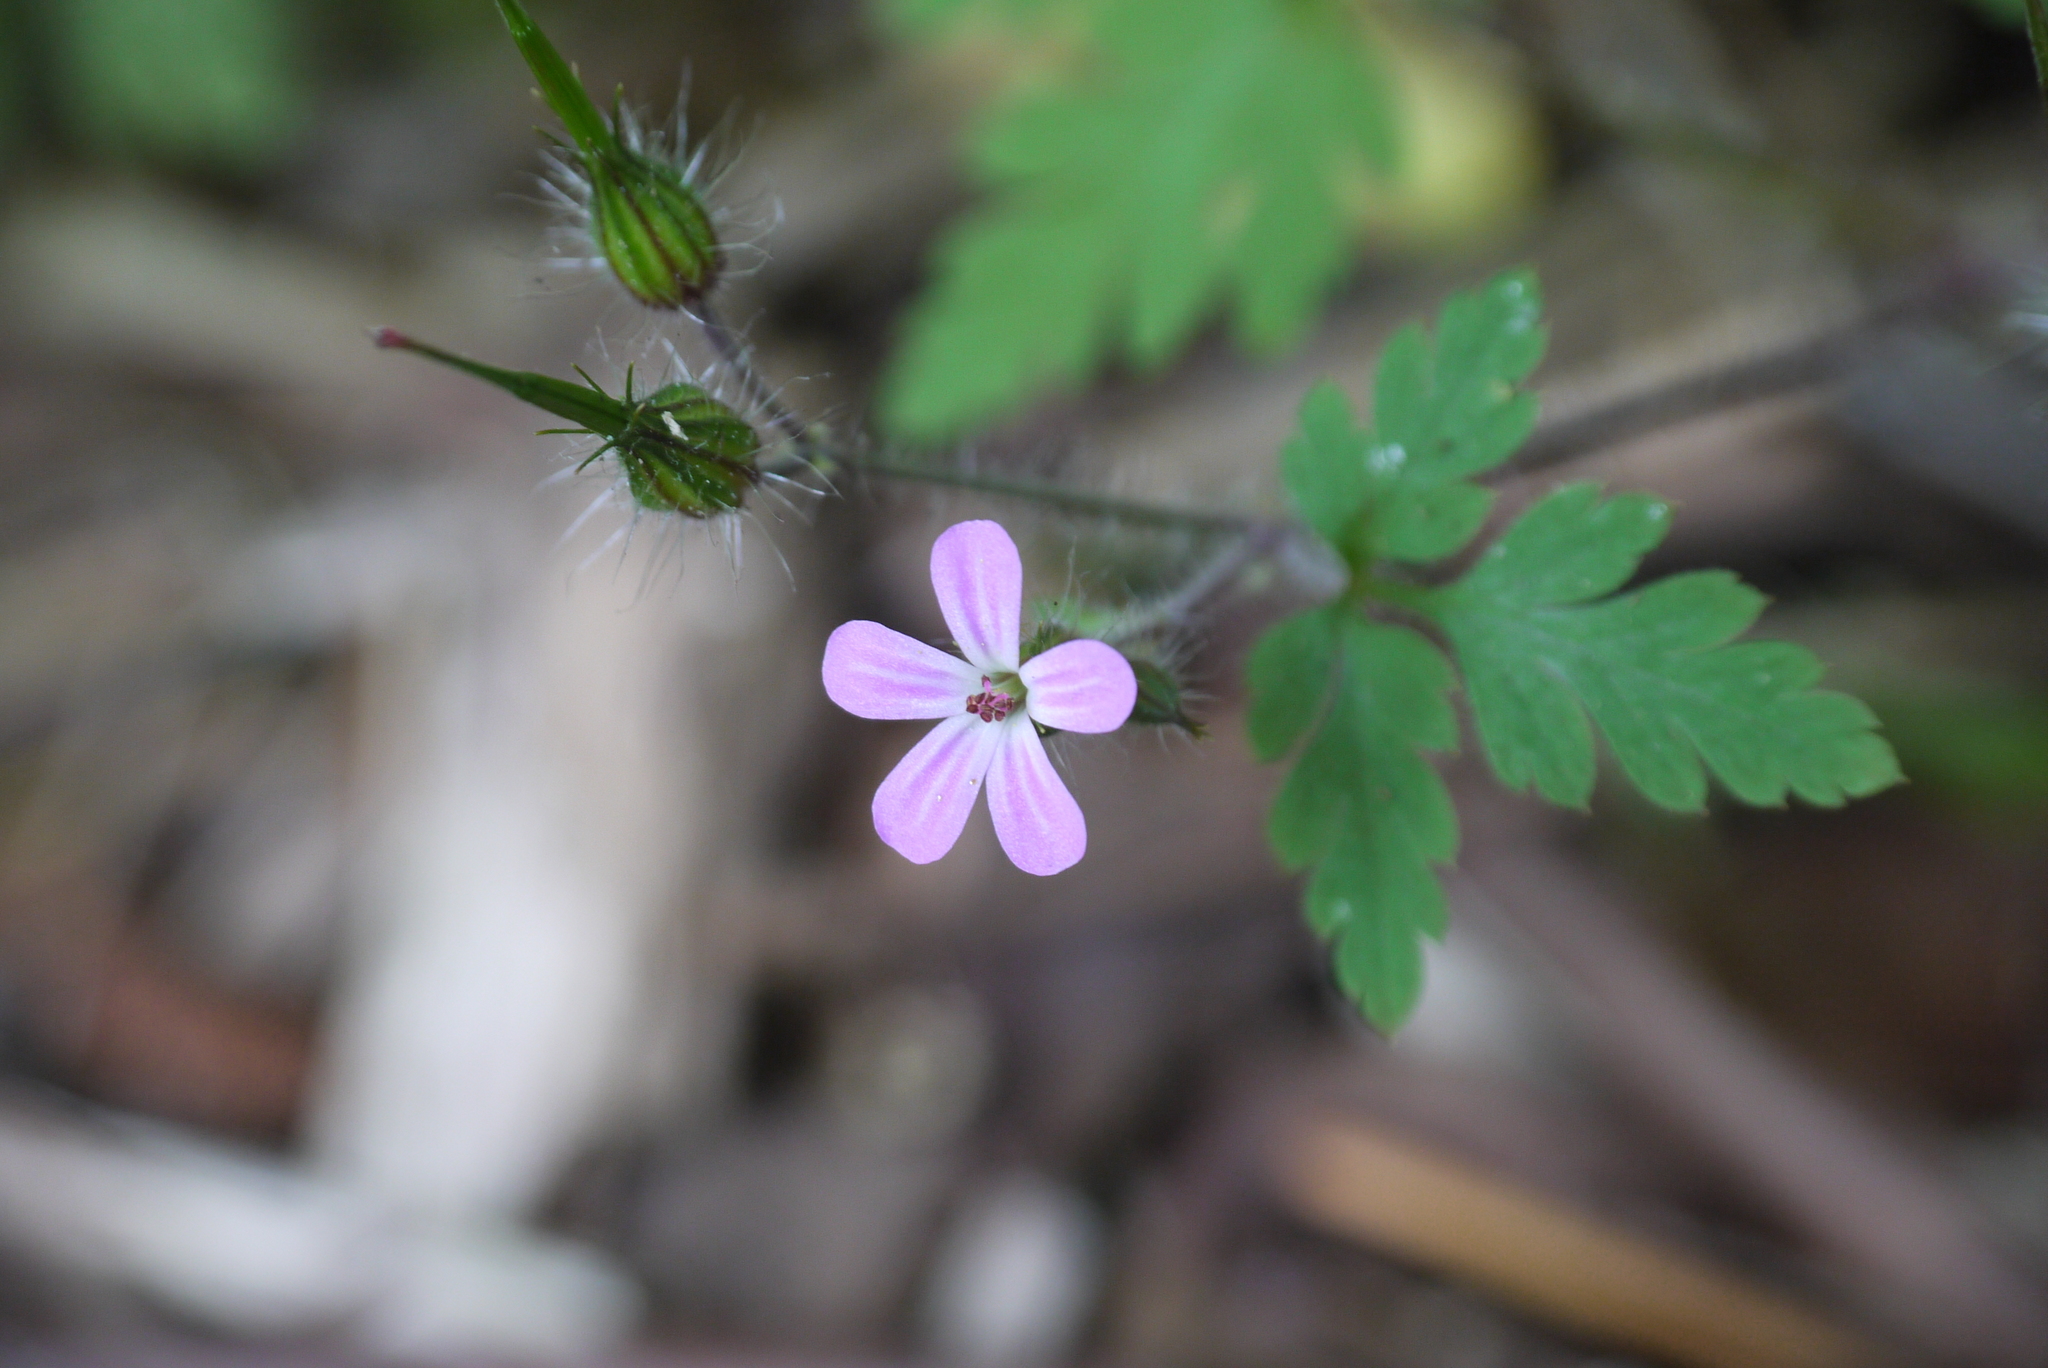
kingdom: Plantae
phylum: Tracheophyta
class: Magnoliopsida
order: Geraniales
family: Geraniaceae
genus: Geranium
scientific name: Geranium robertianum
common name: Herb-robert
